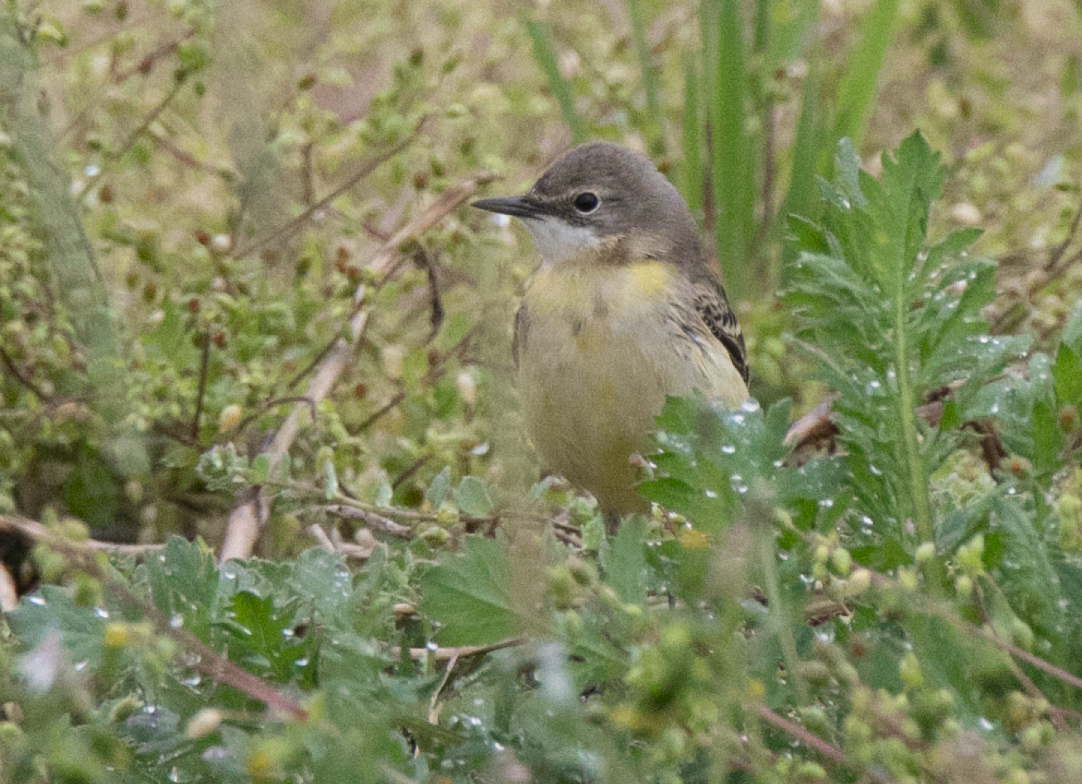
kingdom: Animalia
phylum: Chordata
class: Aves
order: Passeriformes
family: Motacillidae
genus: Motacilla
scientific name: Motacilla flava
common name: Western yellow wagtail
